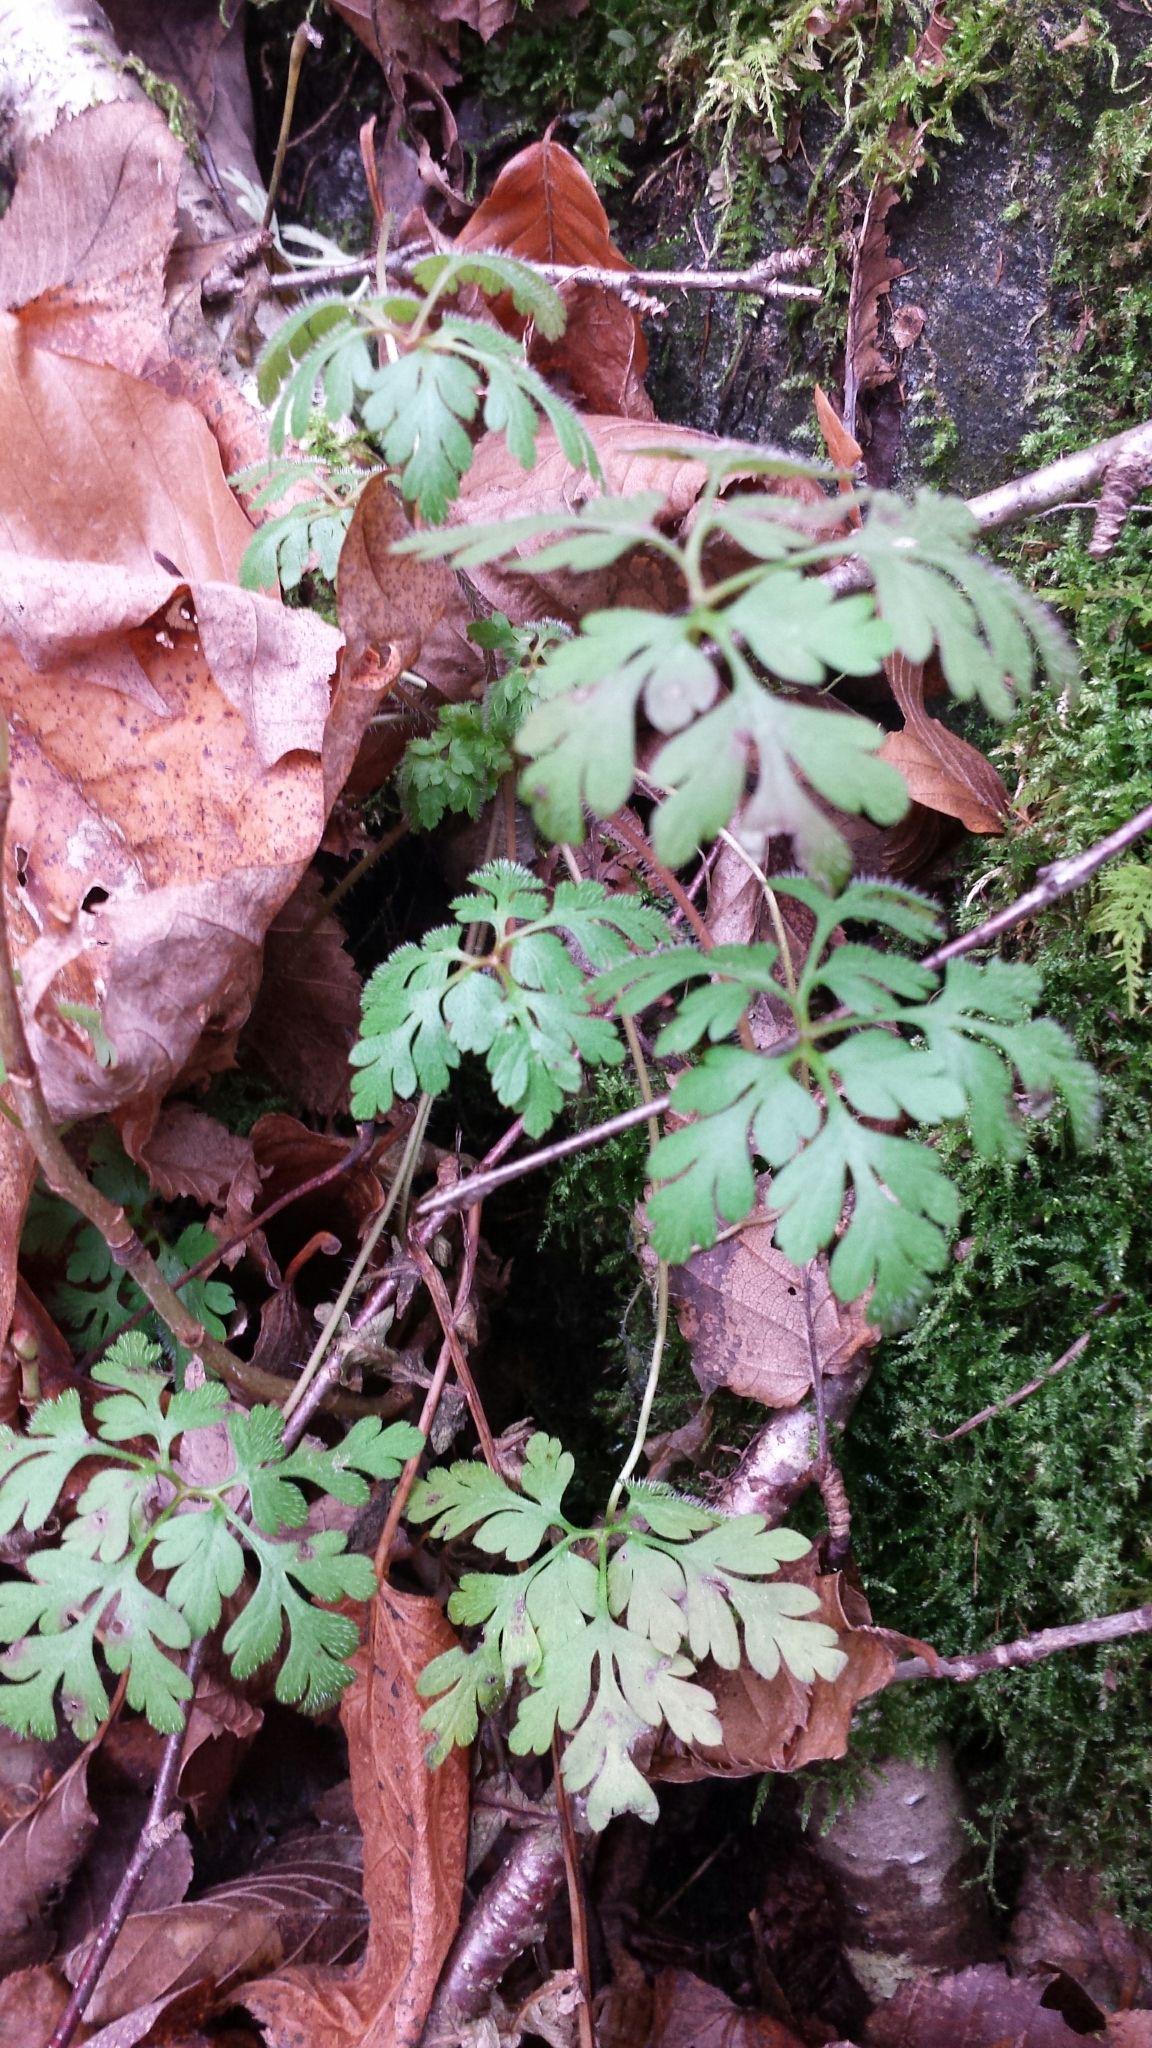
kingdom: Plantae
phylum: Tracheophyta
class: Magnoliopsida
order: Geraniales
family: Geraniaceae
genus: Geranium
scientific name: Geranium robertianum
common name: Herb-robert
